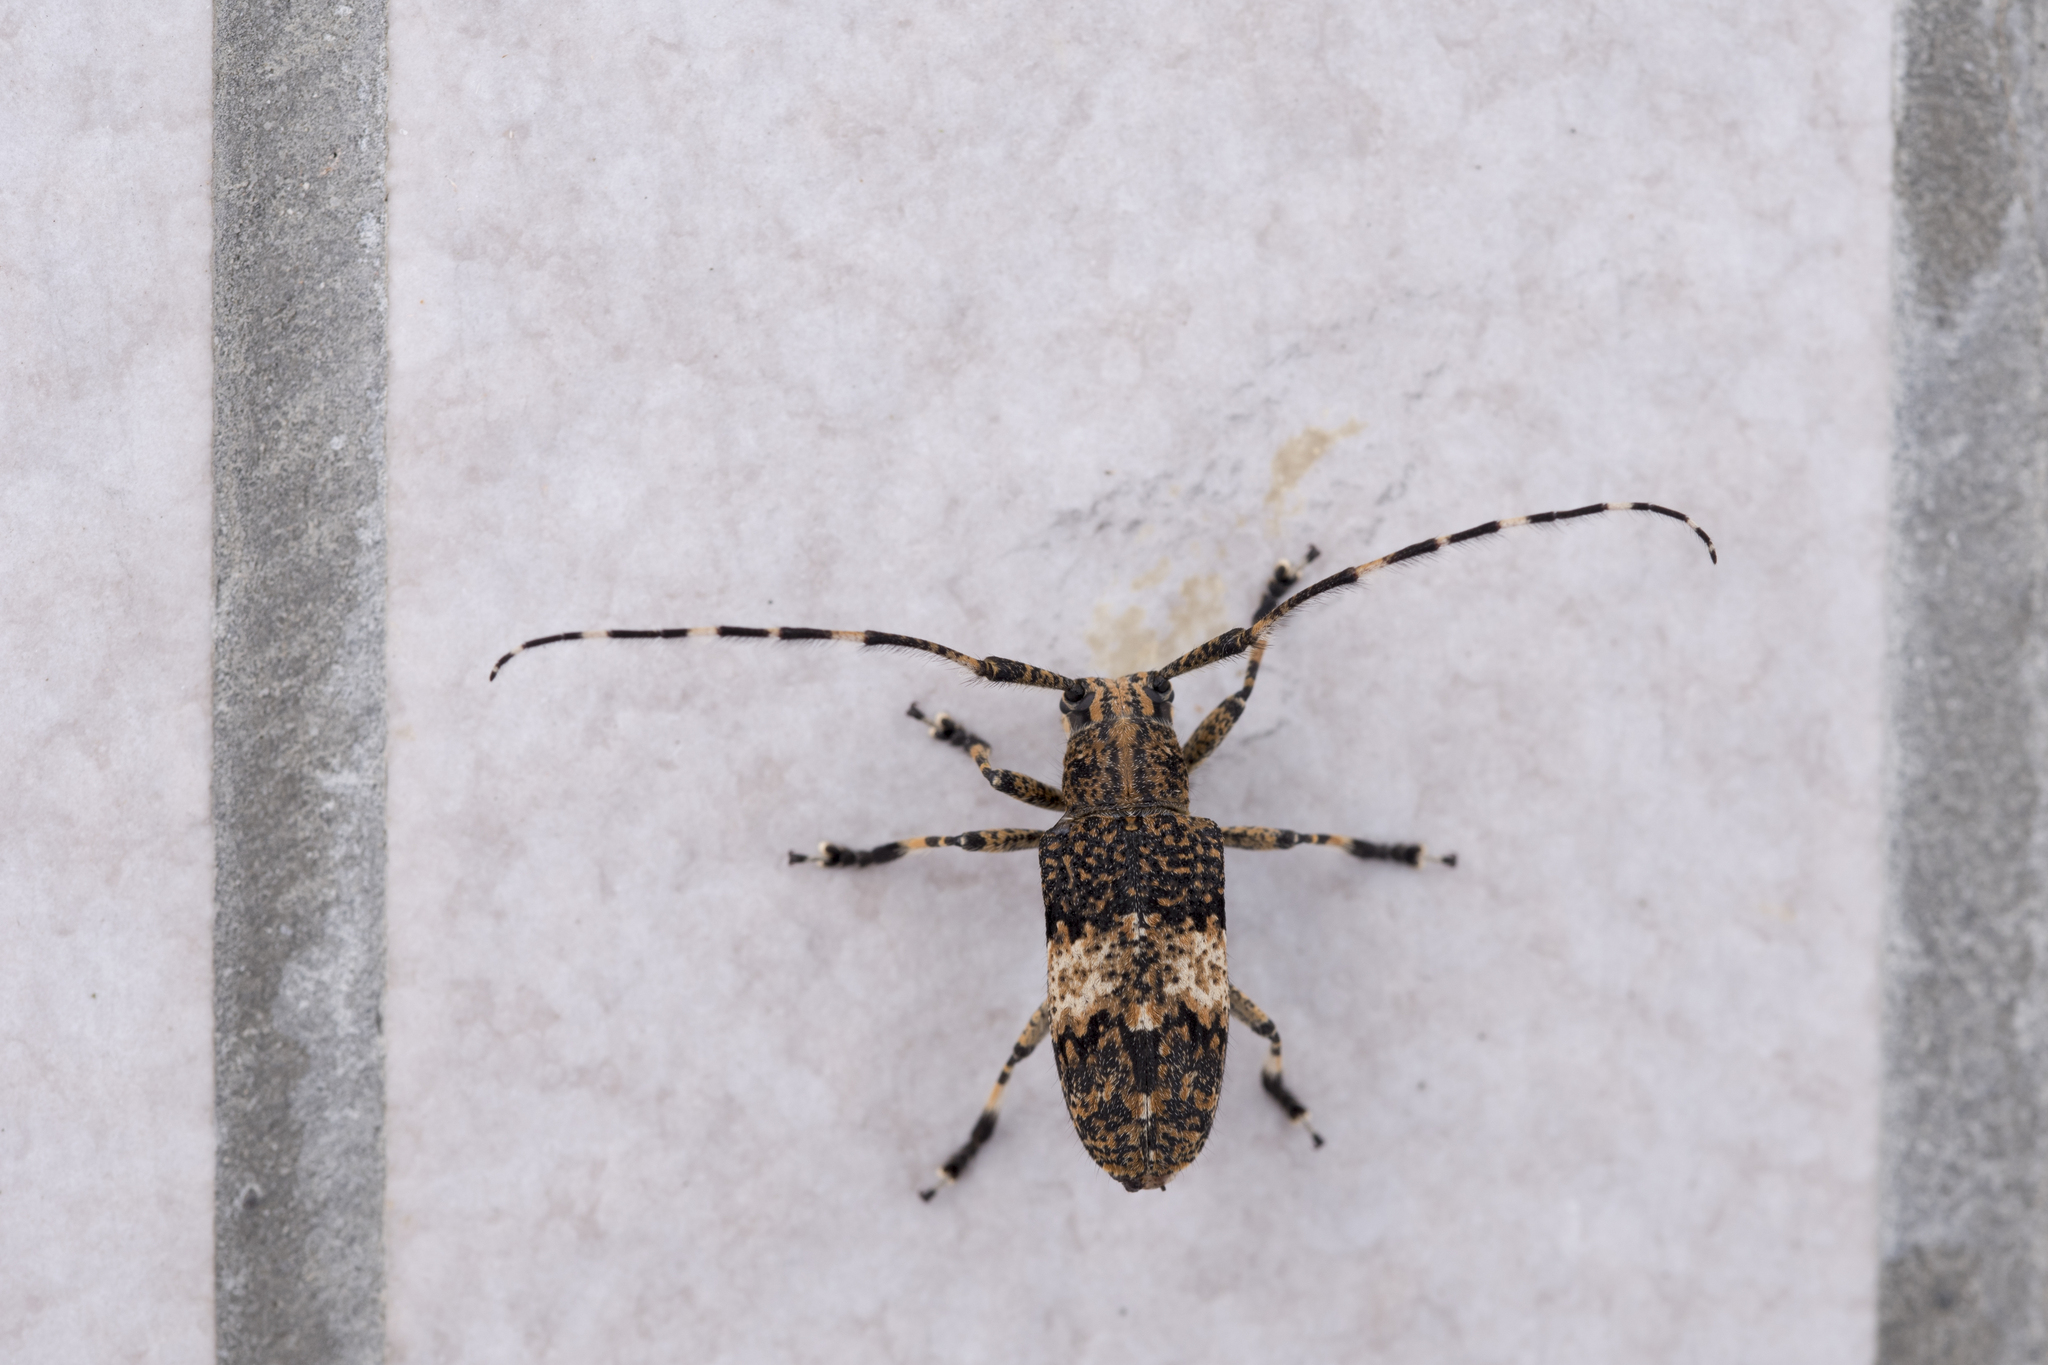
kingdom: Animalia
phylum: Arthropoda
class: Insecta
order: Coleoptera
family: Cerambycidae
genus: Mesosa
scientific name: Mesosa latifasciata
